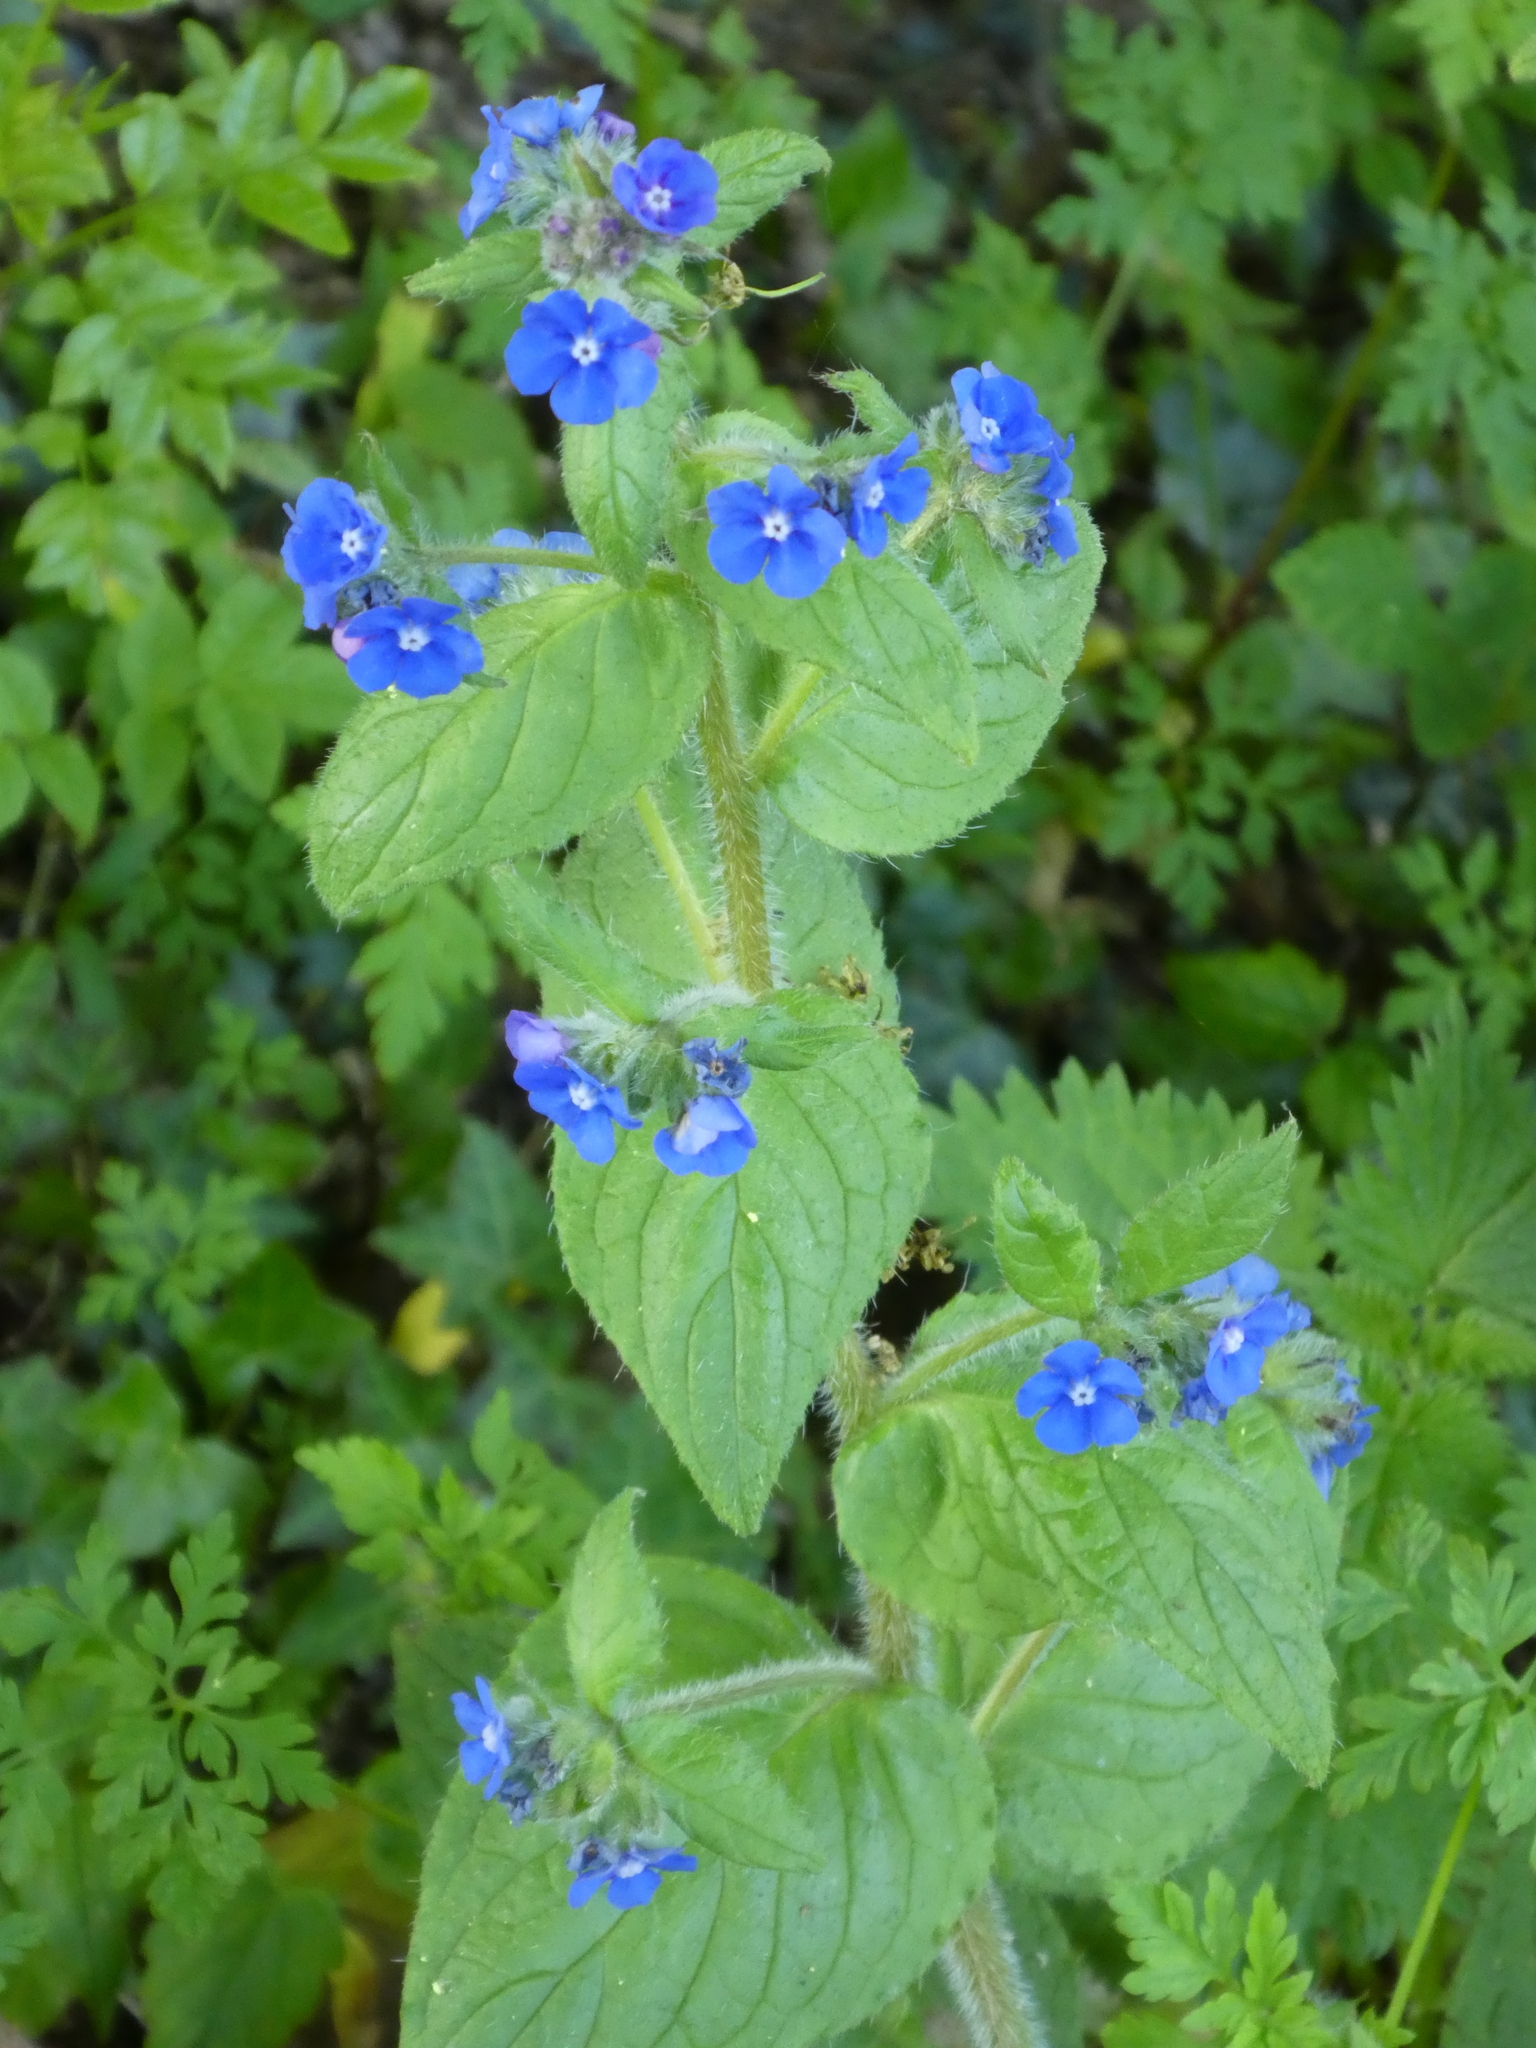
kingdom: Plantae
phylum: Tracheophyta
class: Magnoliopsida
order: Boraginales
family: Boraginaceae
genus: Pentaglottis
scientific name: Pentaglottis sempervirens
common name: Green alkanet
